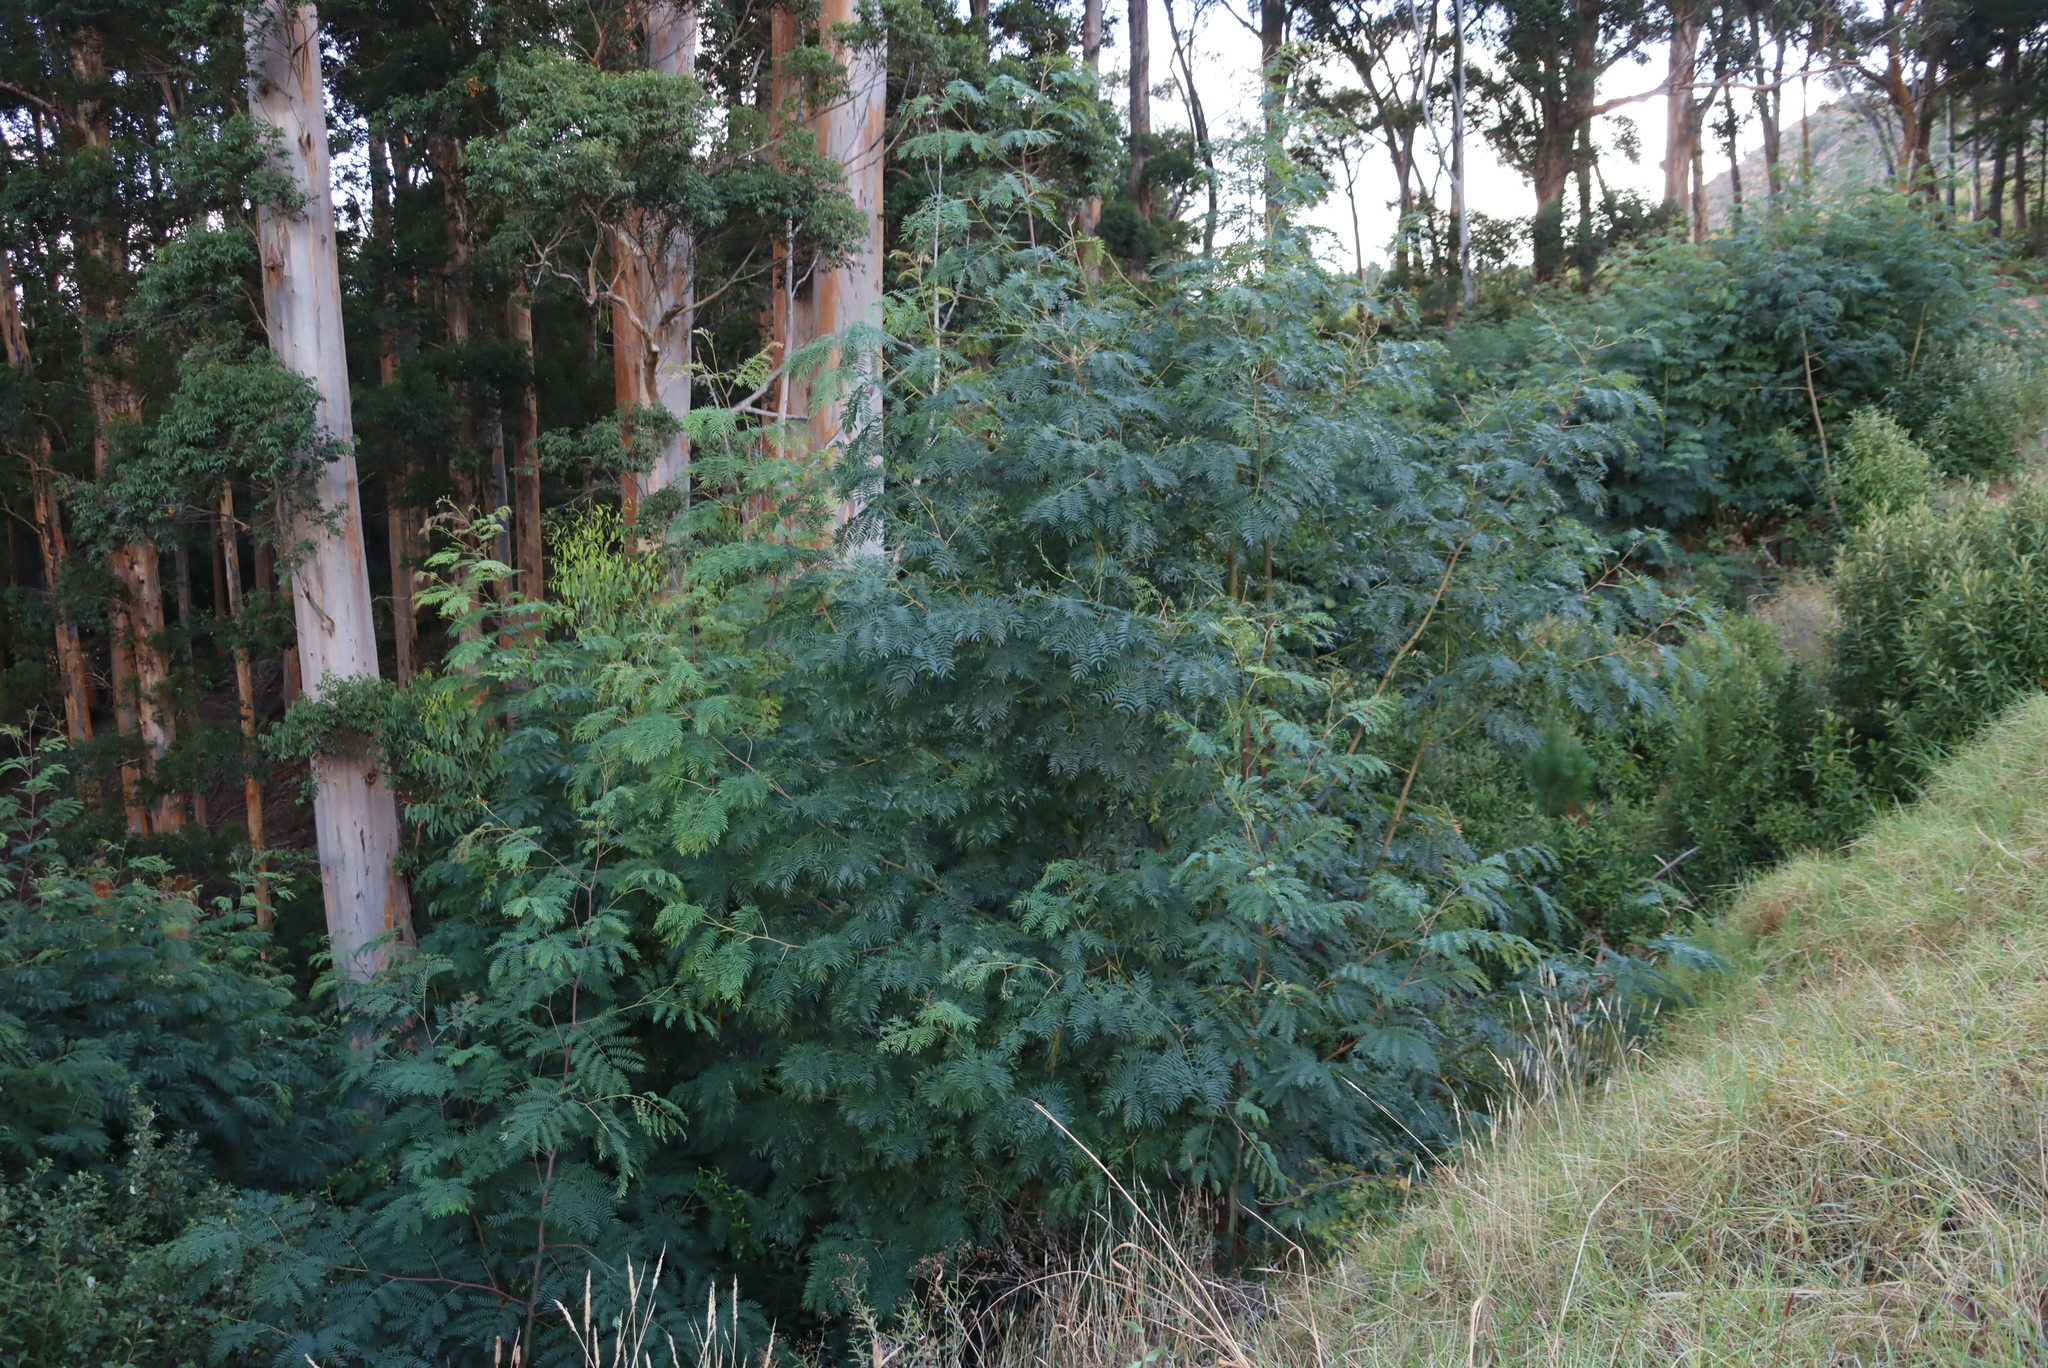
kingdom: Plantae
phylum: Tracheophyta
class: Magnoliopsida
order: Fabales
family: Fabaceae
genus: Acacia
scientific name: Acacia elata
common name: Cedar wattle
